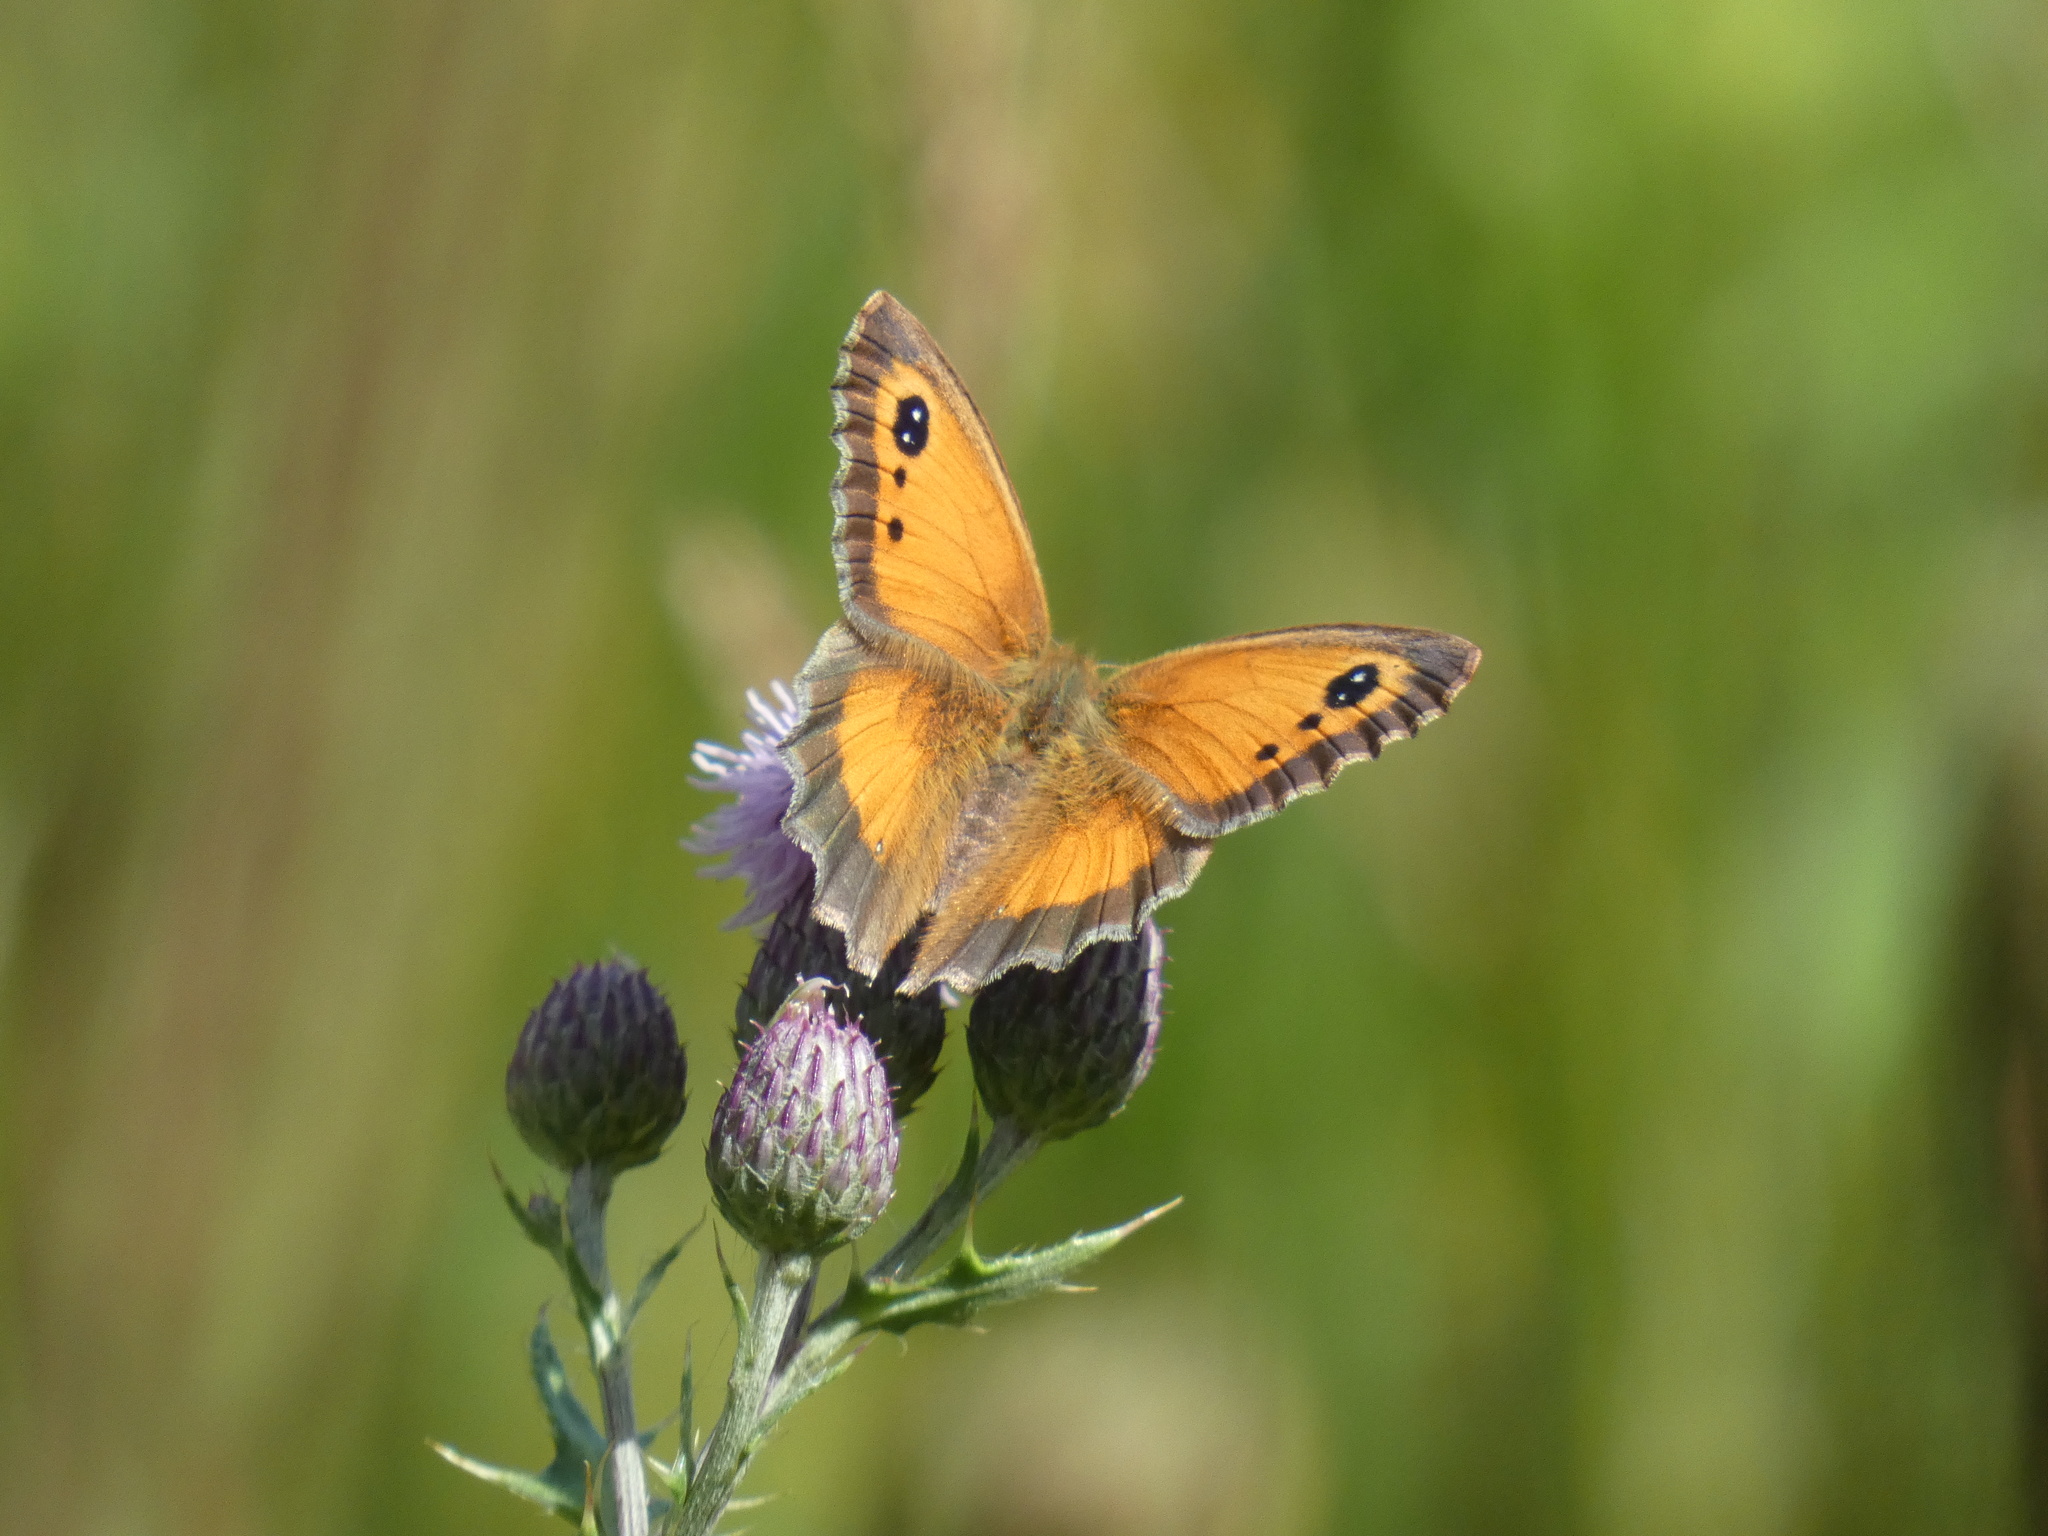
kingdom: Animalia
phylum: Arthropoda
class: Insecta
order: Lepidoptera
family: Nymphalidae
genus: Pyronia
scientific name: Pyronia tithonus
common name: Gatekeeper
